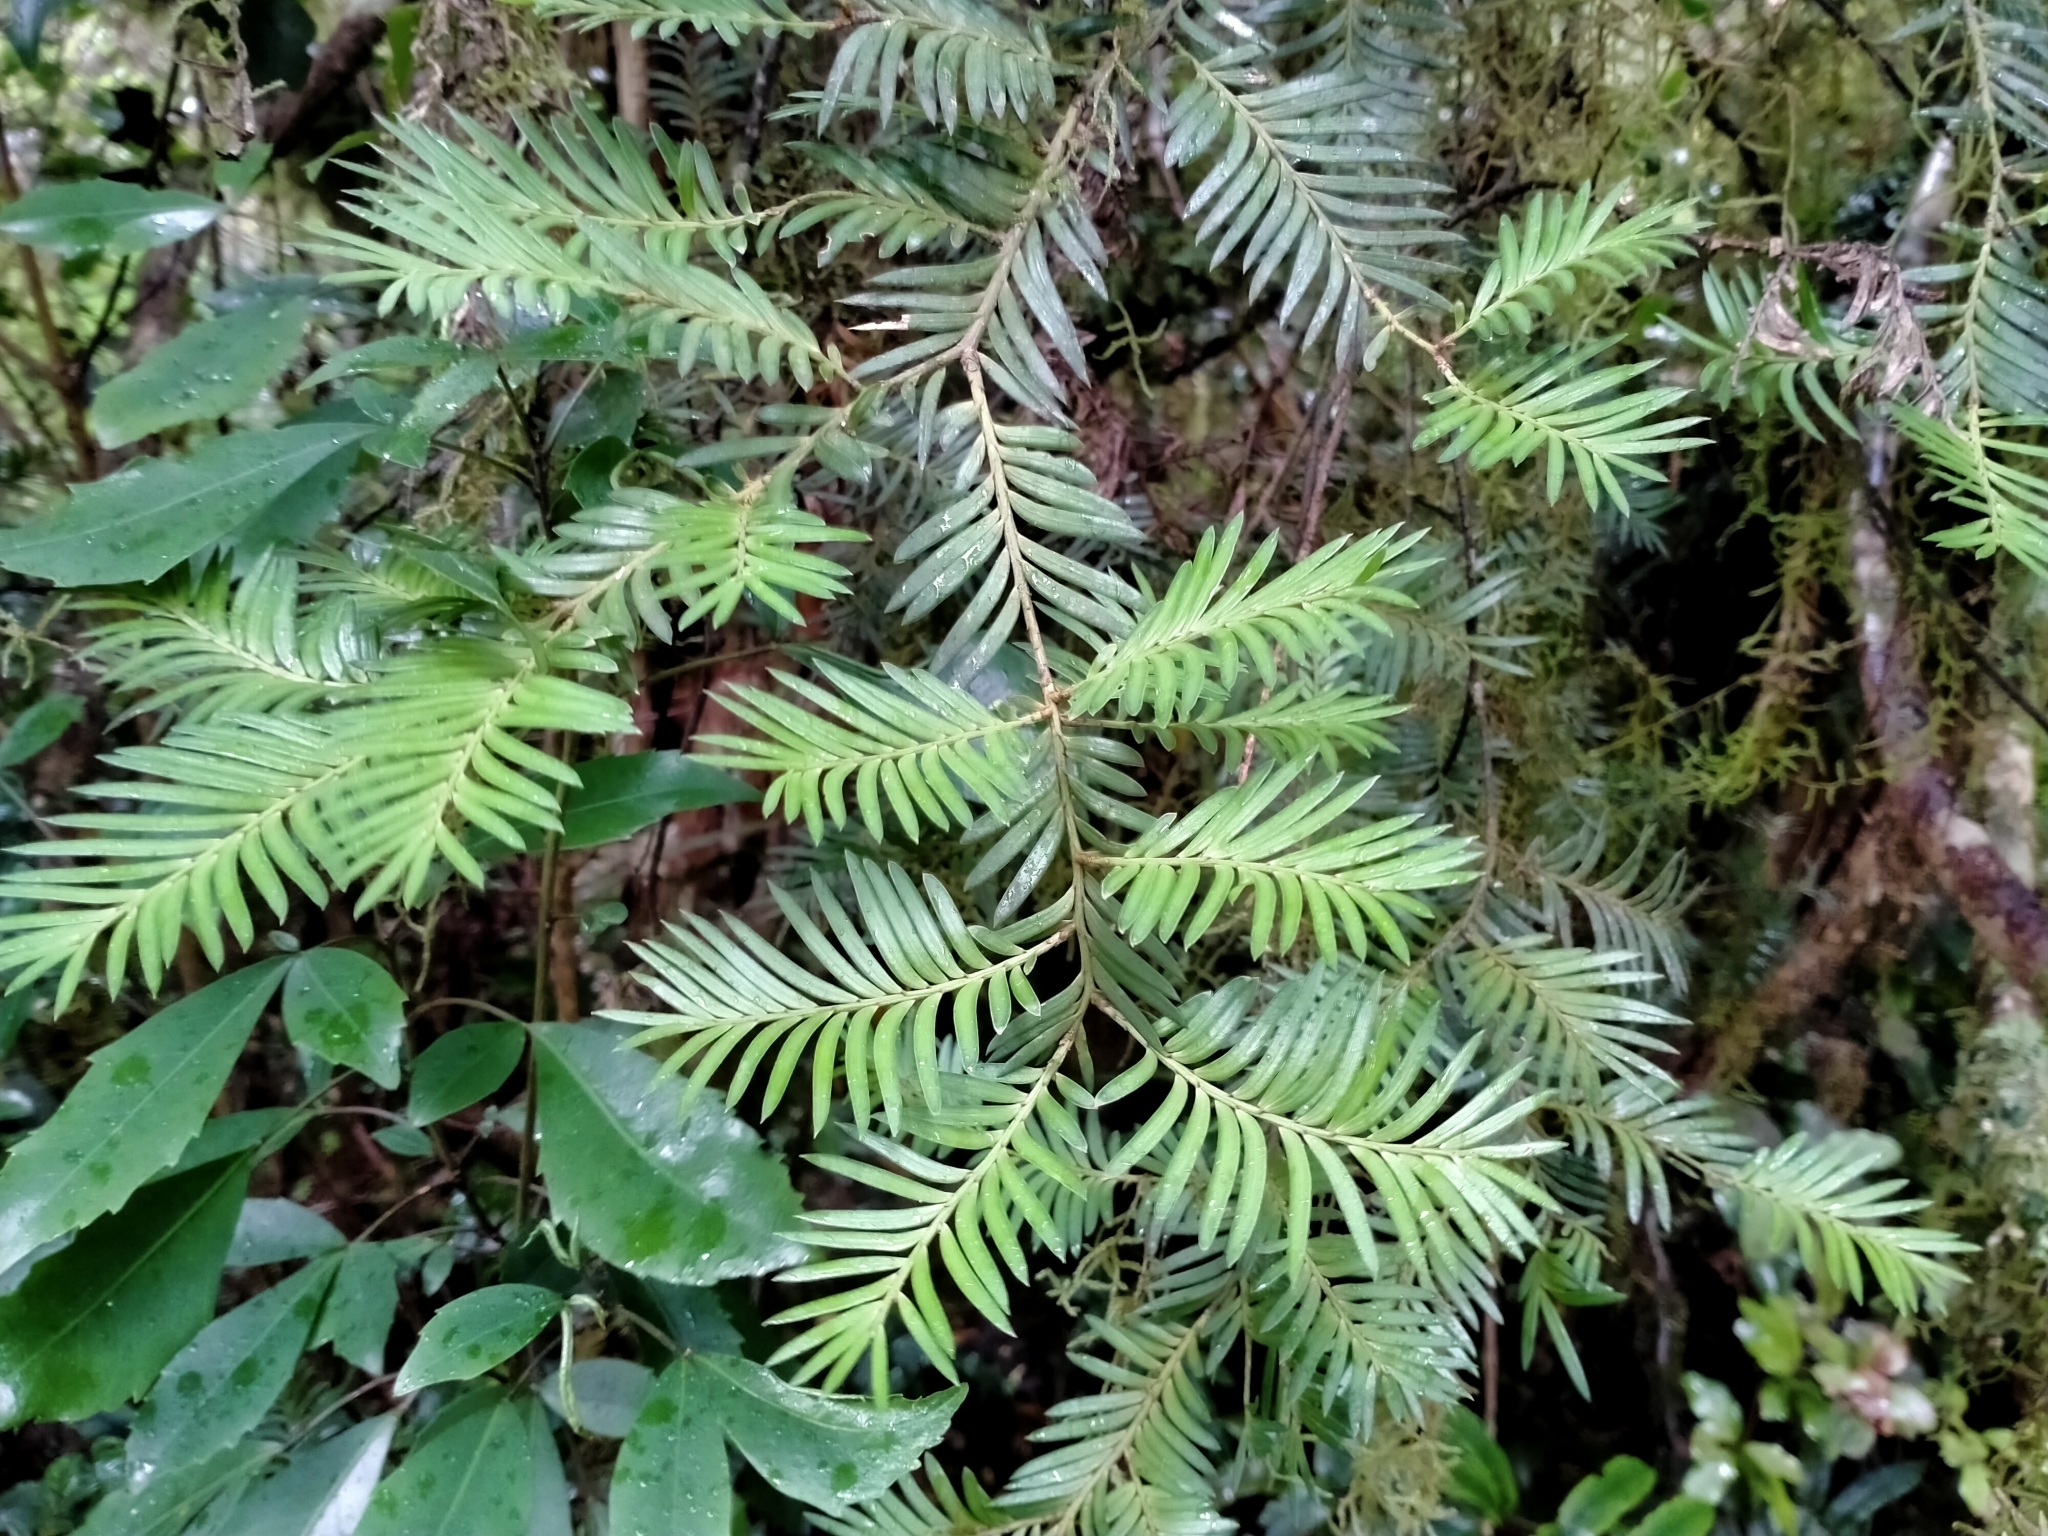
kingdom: Plantae
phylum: Tracheophyta
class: Pinopsida
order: Pinales
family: Podocarpaceae
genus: Prumnopitys
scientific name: Prumnopitys ferruginea
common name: Brown pine
